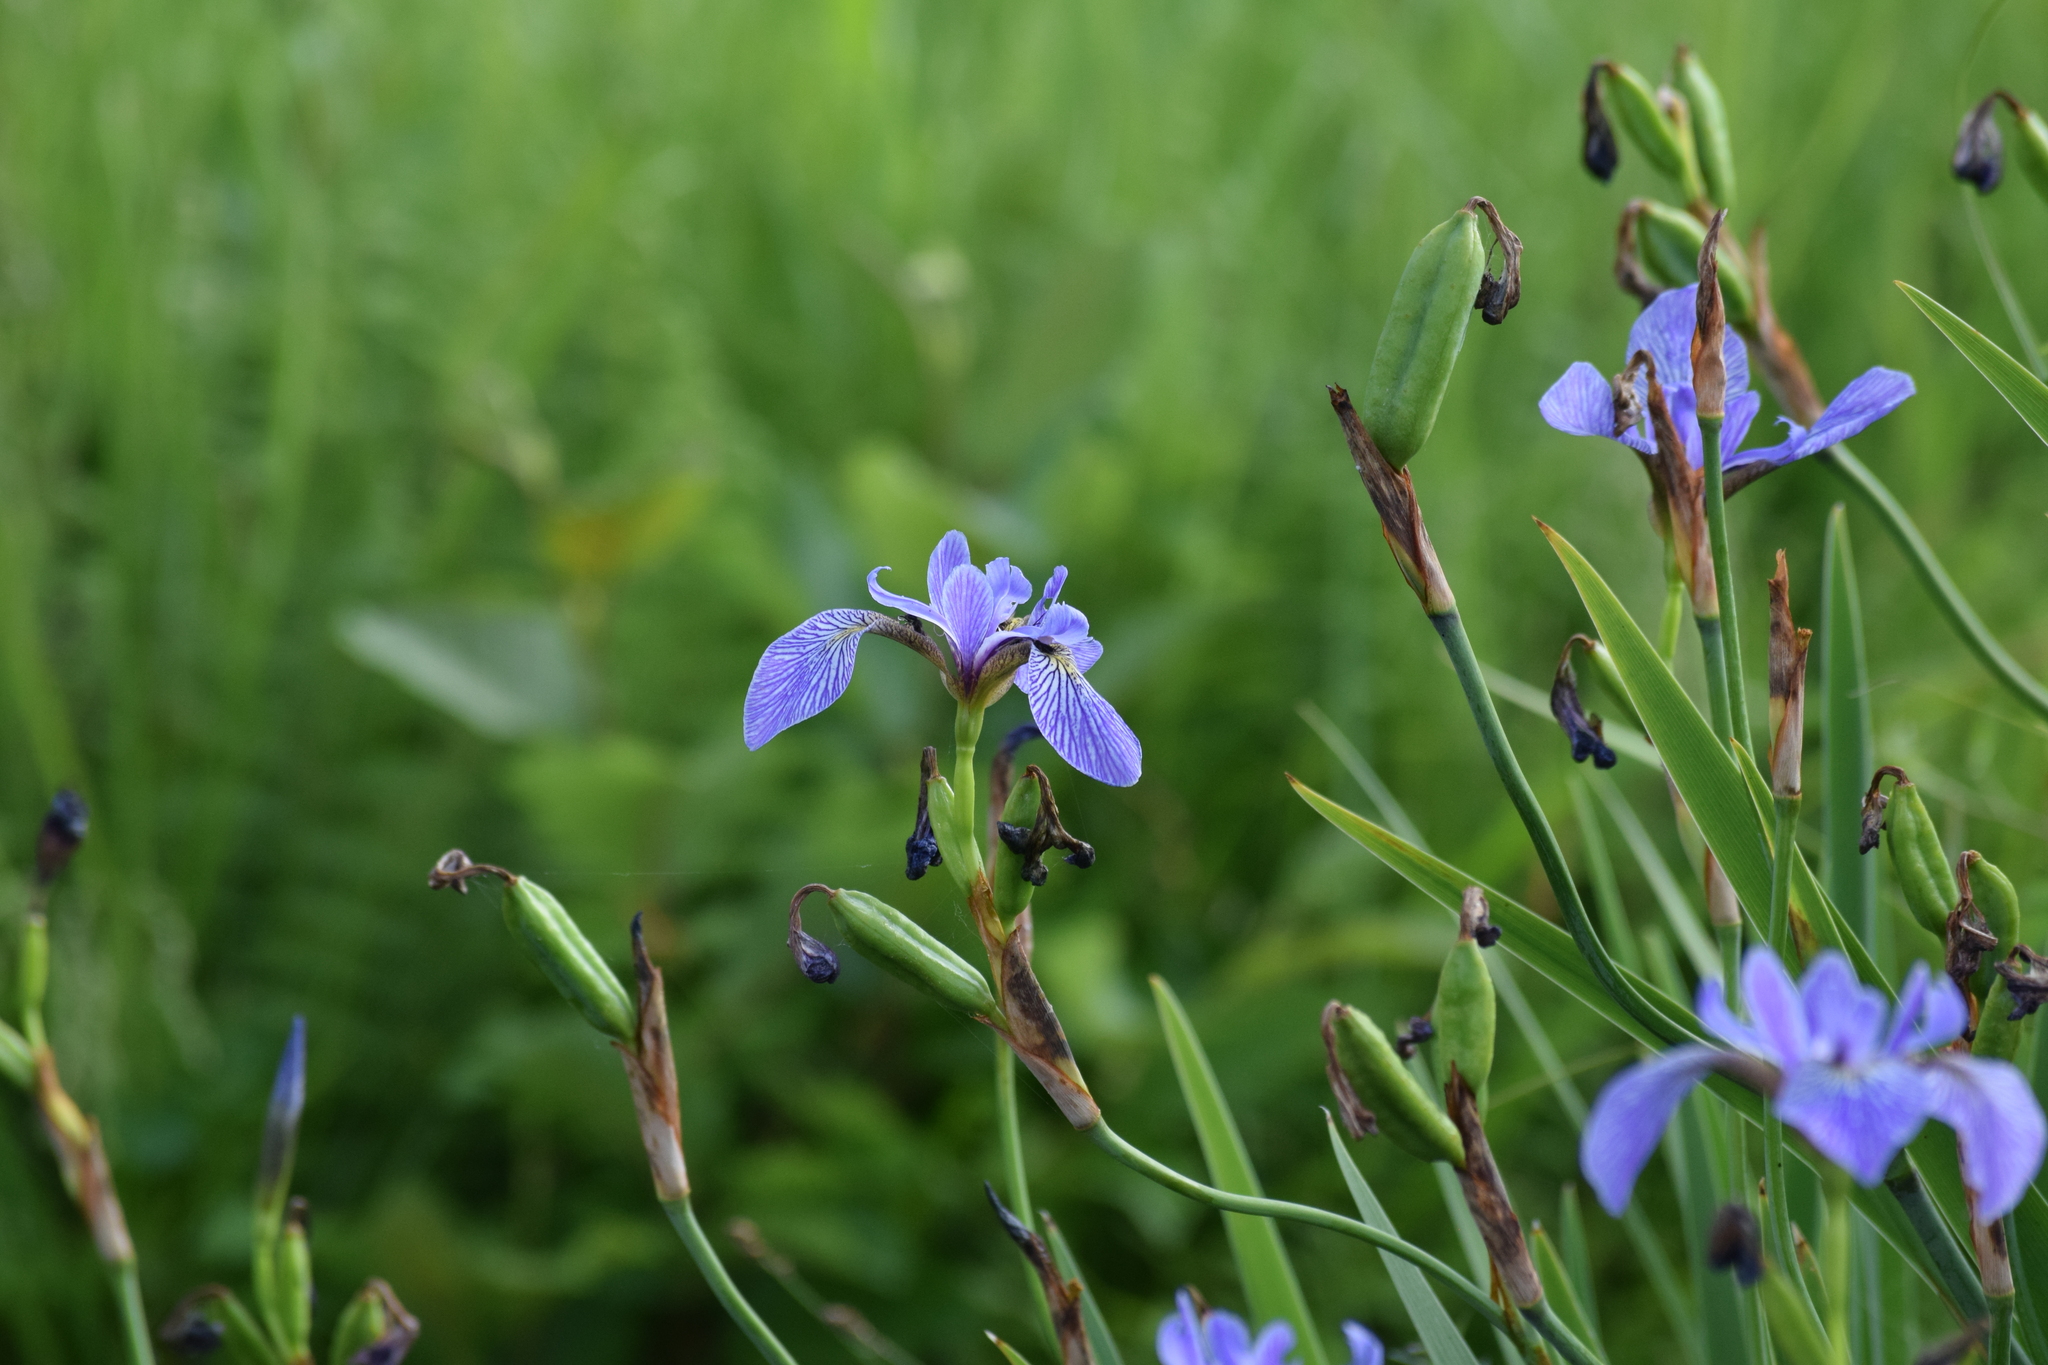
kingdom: Plantae
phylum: Tracheophyta
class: Liliopsida
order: Asparagales
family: Iridaceae
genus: Iris
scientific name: Iris versicolor
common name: Purple iris
